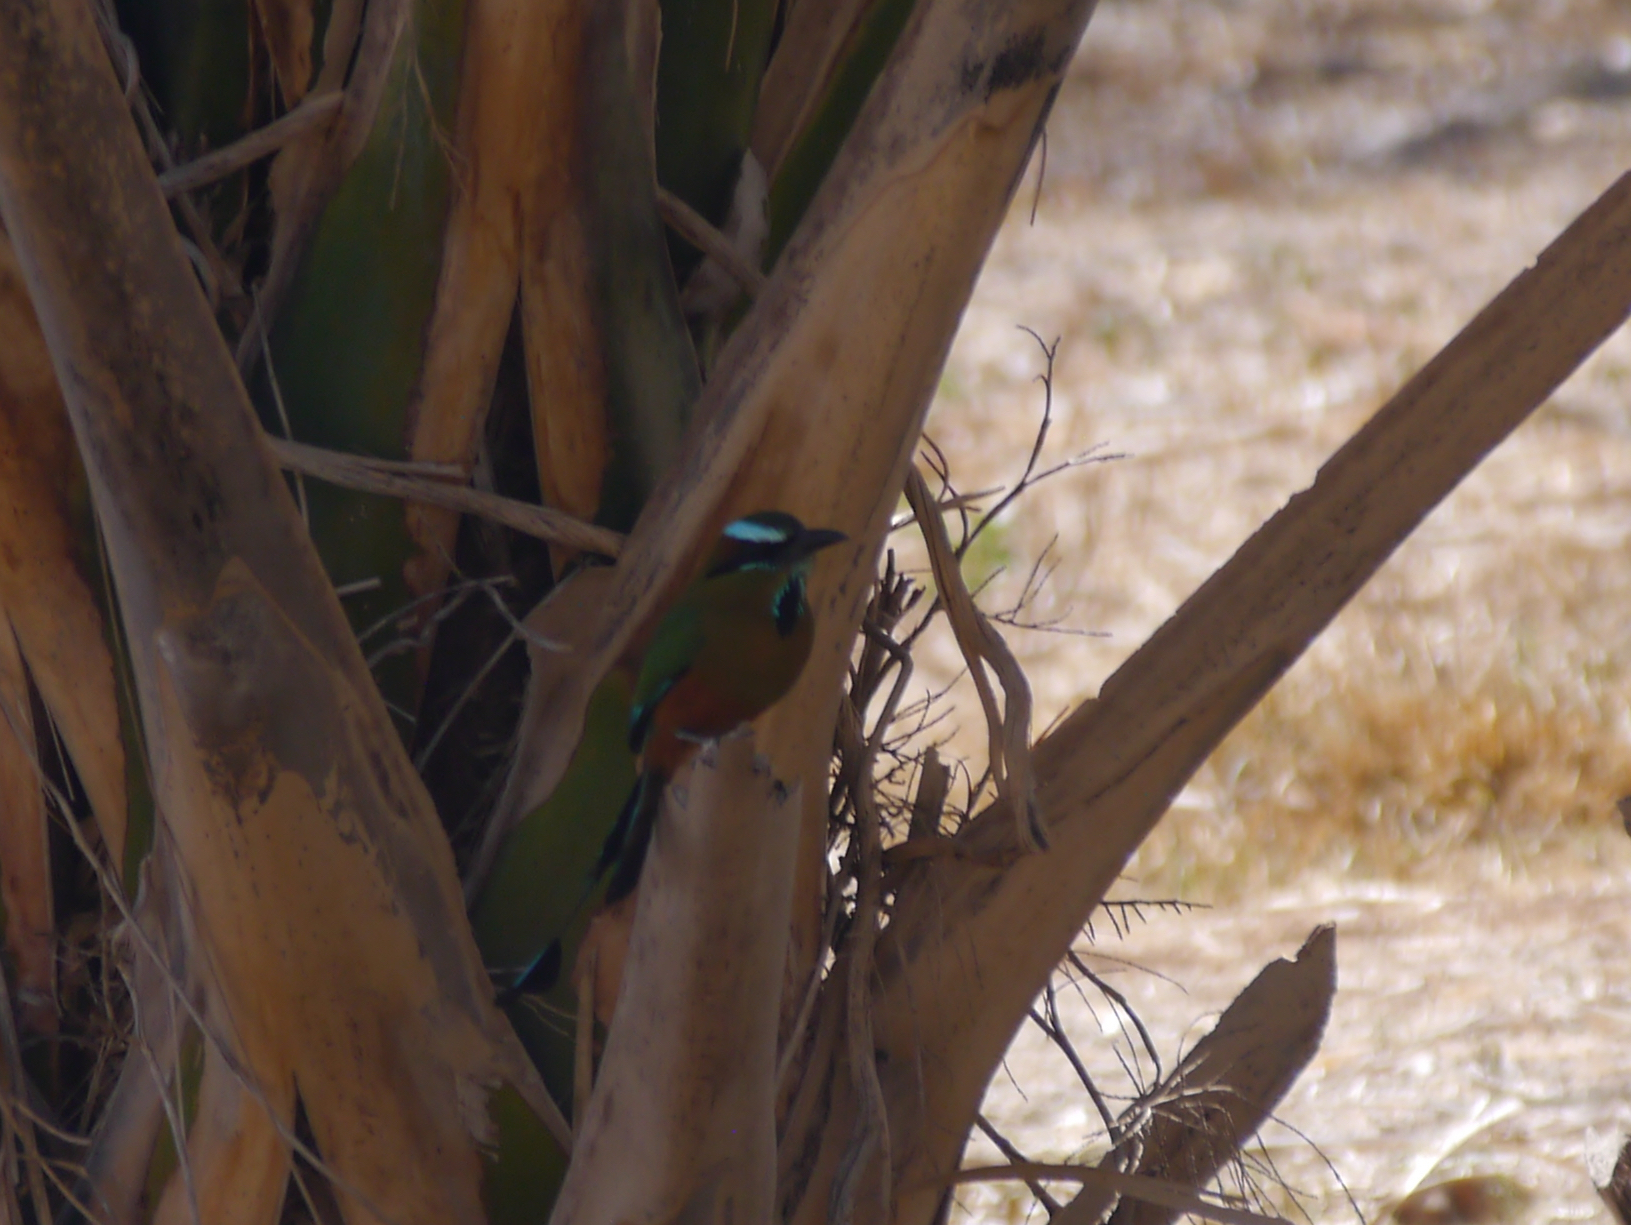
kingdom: Animalia
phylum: Chordata
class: Aves
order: Coraciiformes
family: Momotidae
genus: Eumomota
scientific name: Eumomota superciliosa
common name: Turquoise-browed motmot
